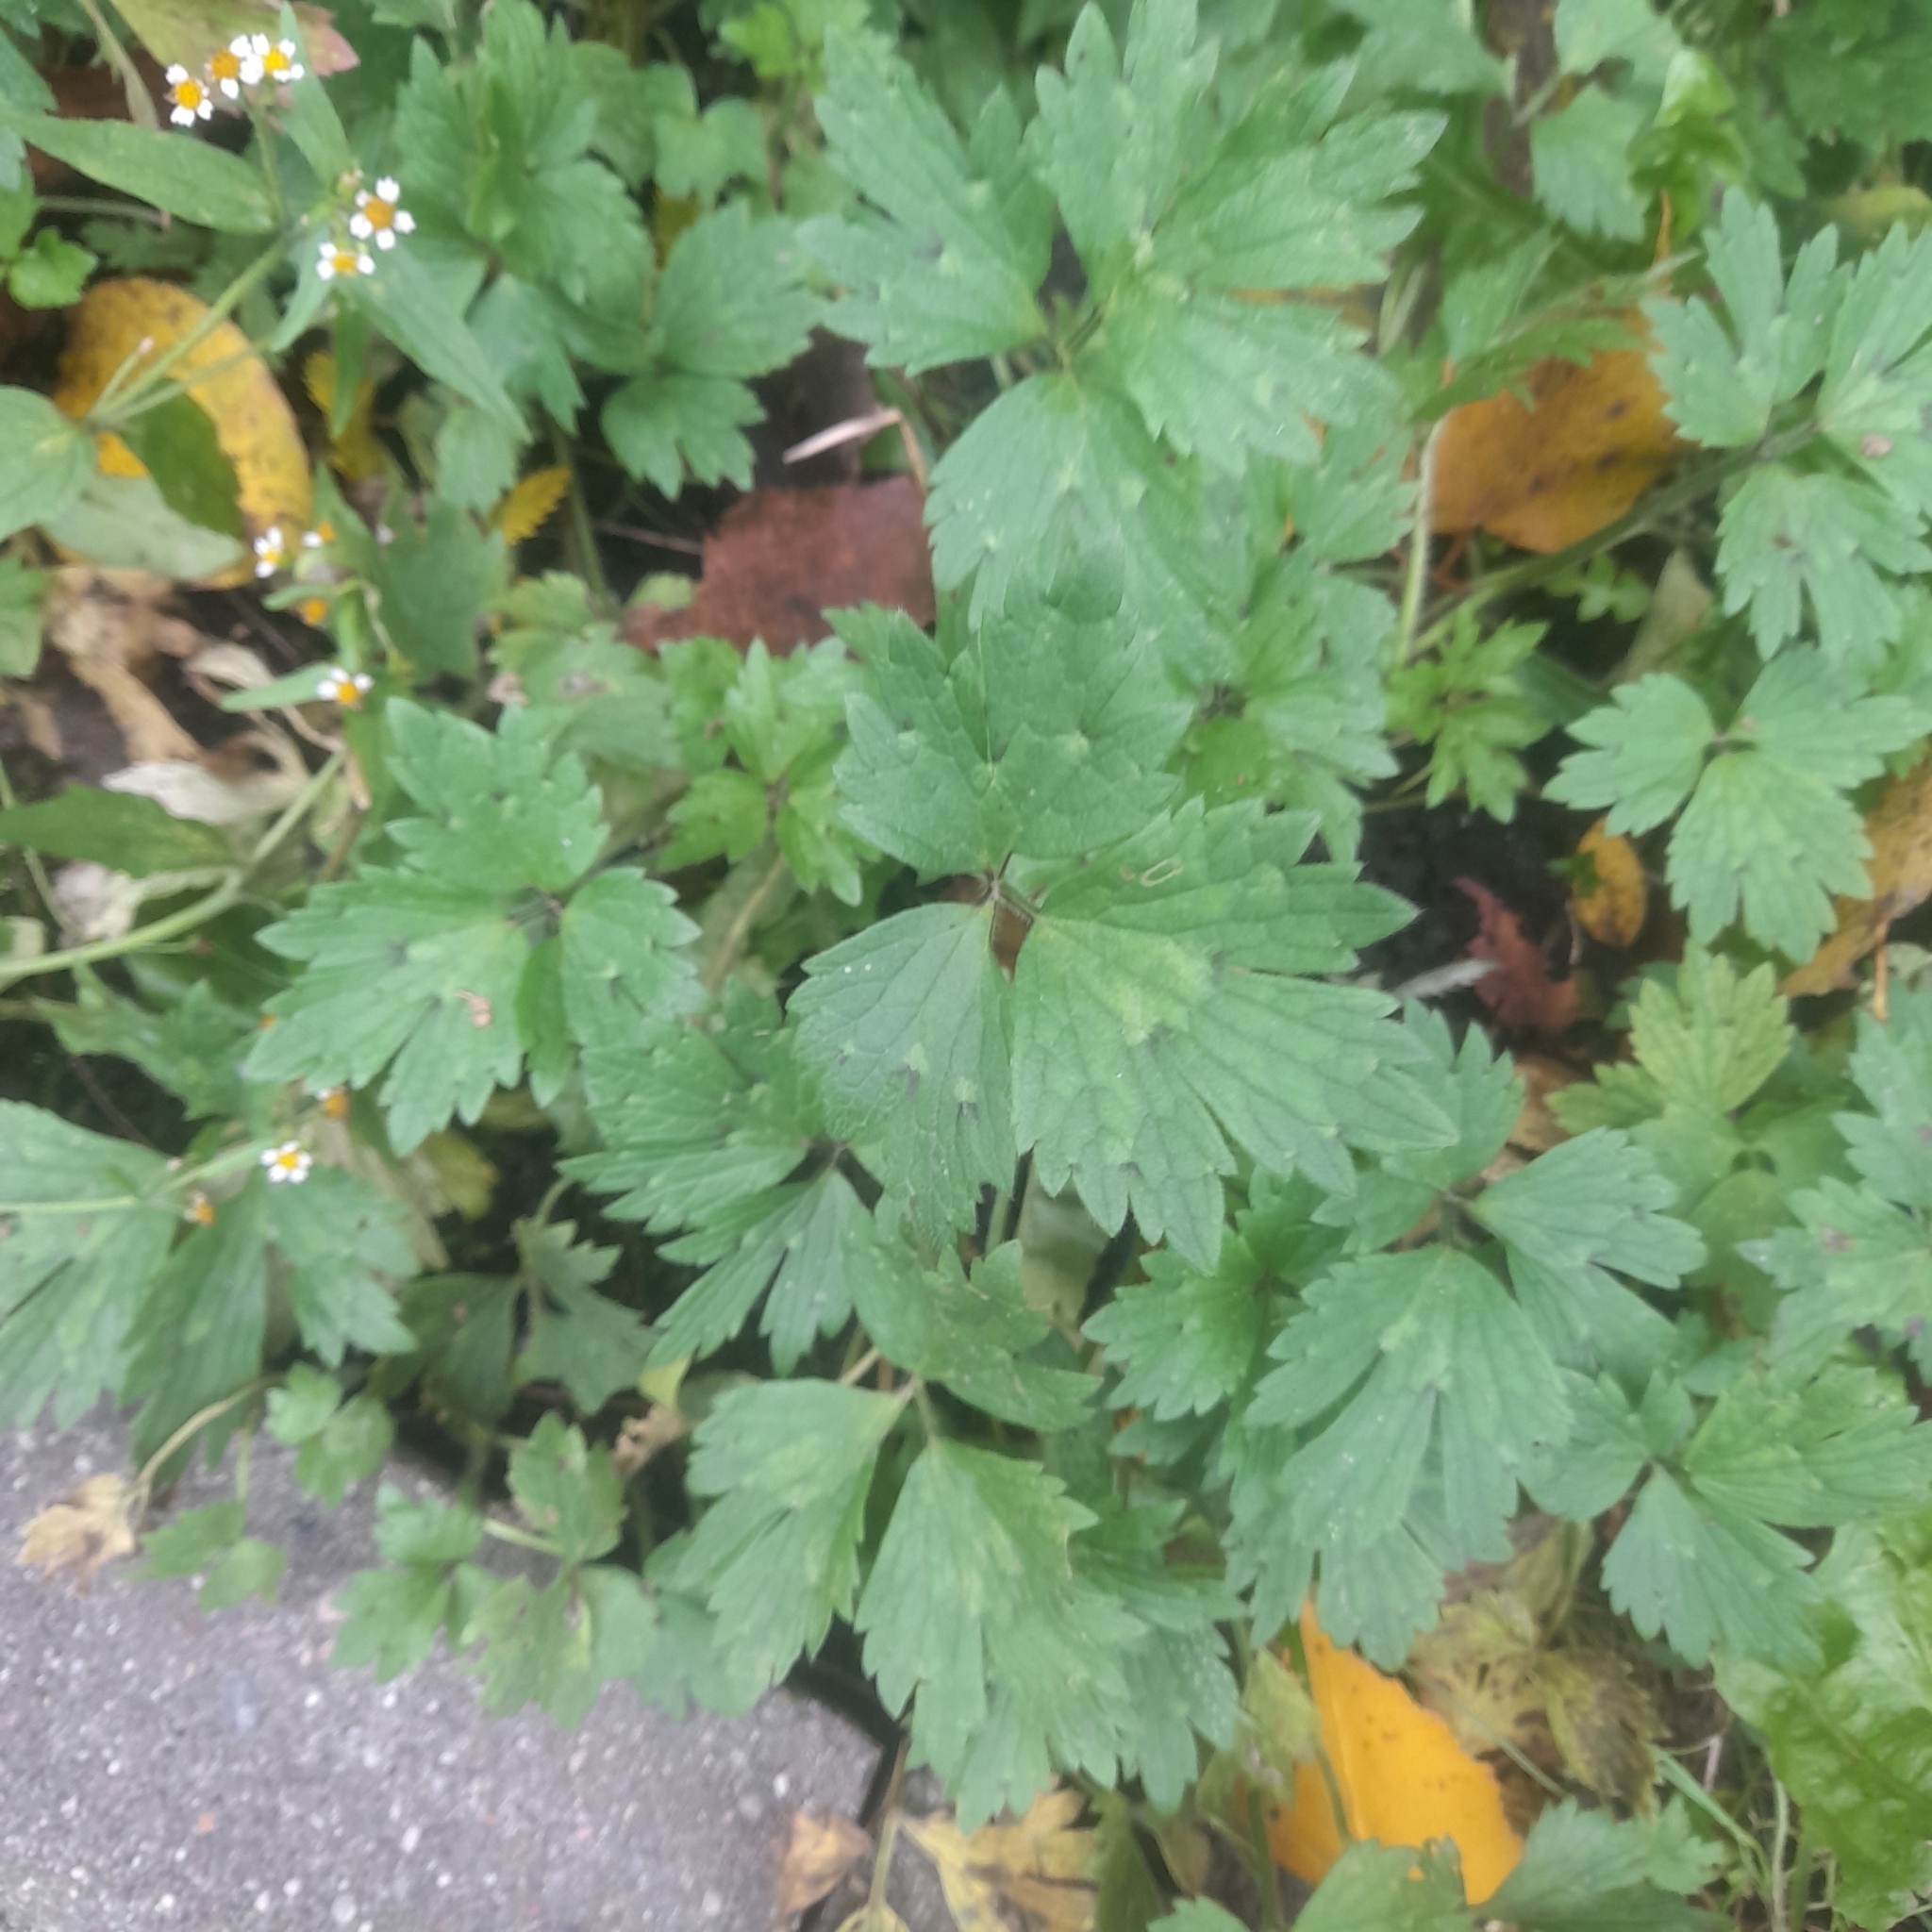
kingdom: Plantae
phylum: Tracheophyta
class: Magnoliopsida
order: Ranunculales
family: Ranunculaceae
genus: Ranunculus
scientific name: Ranunculus repens
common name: Creeping buttercup
